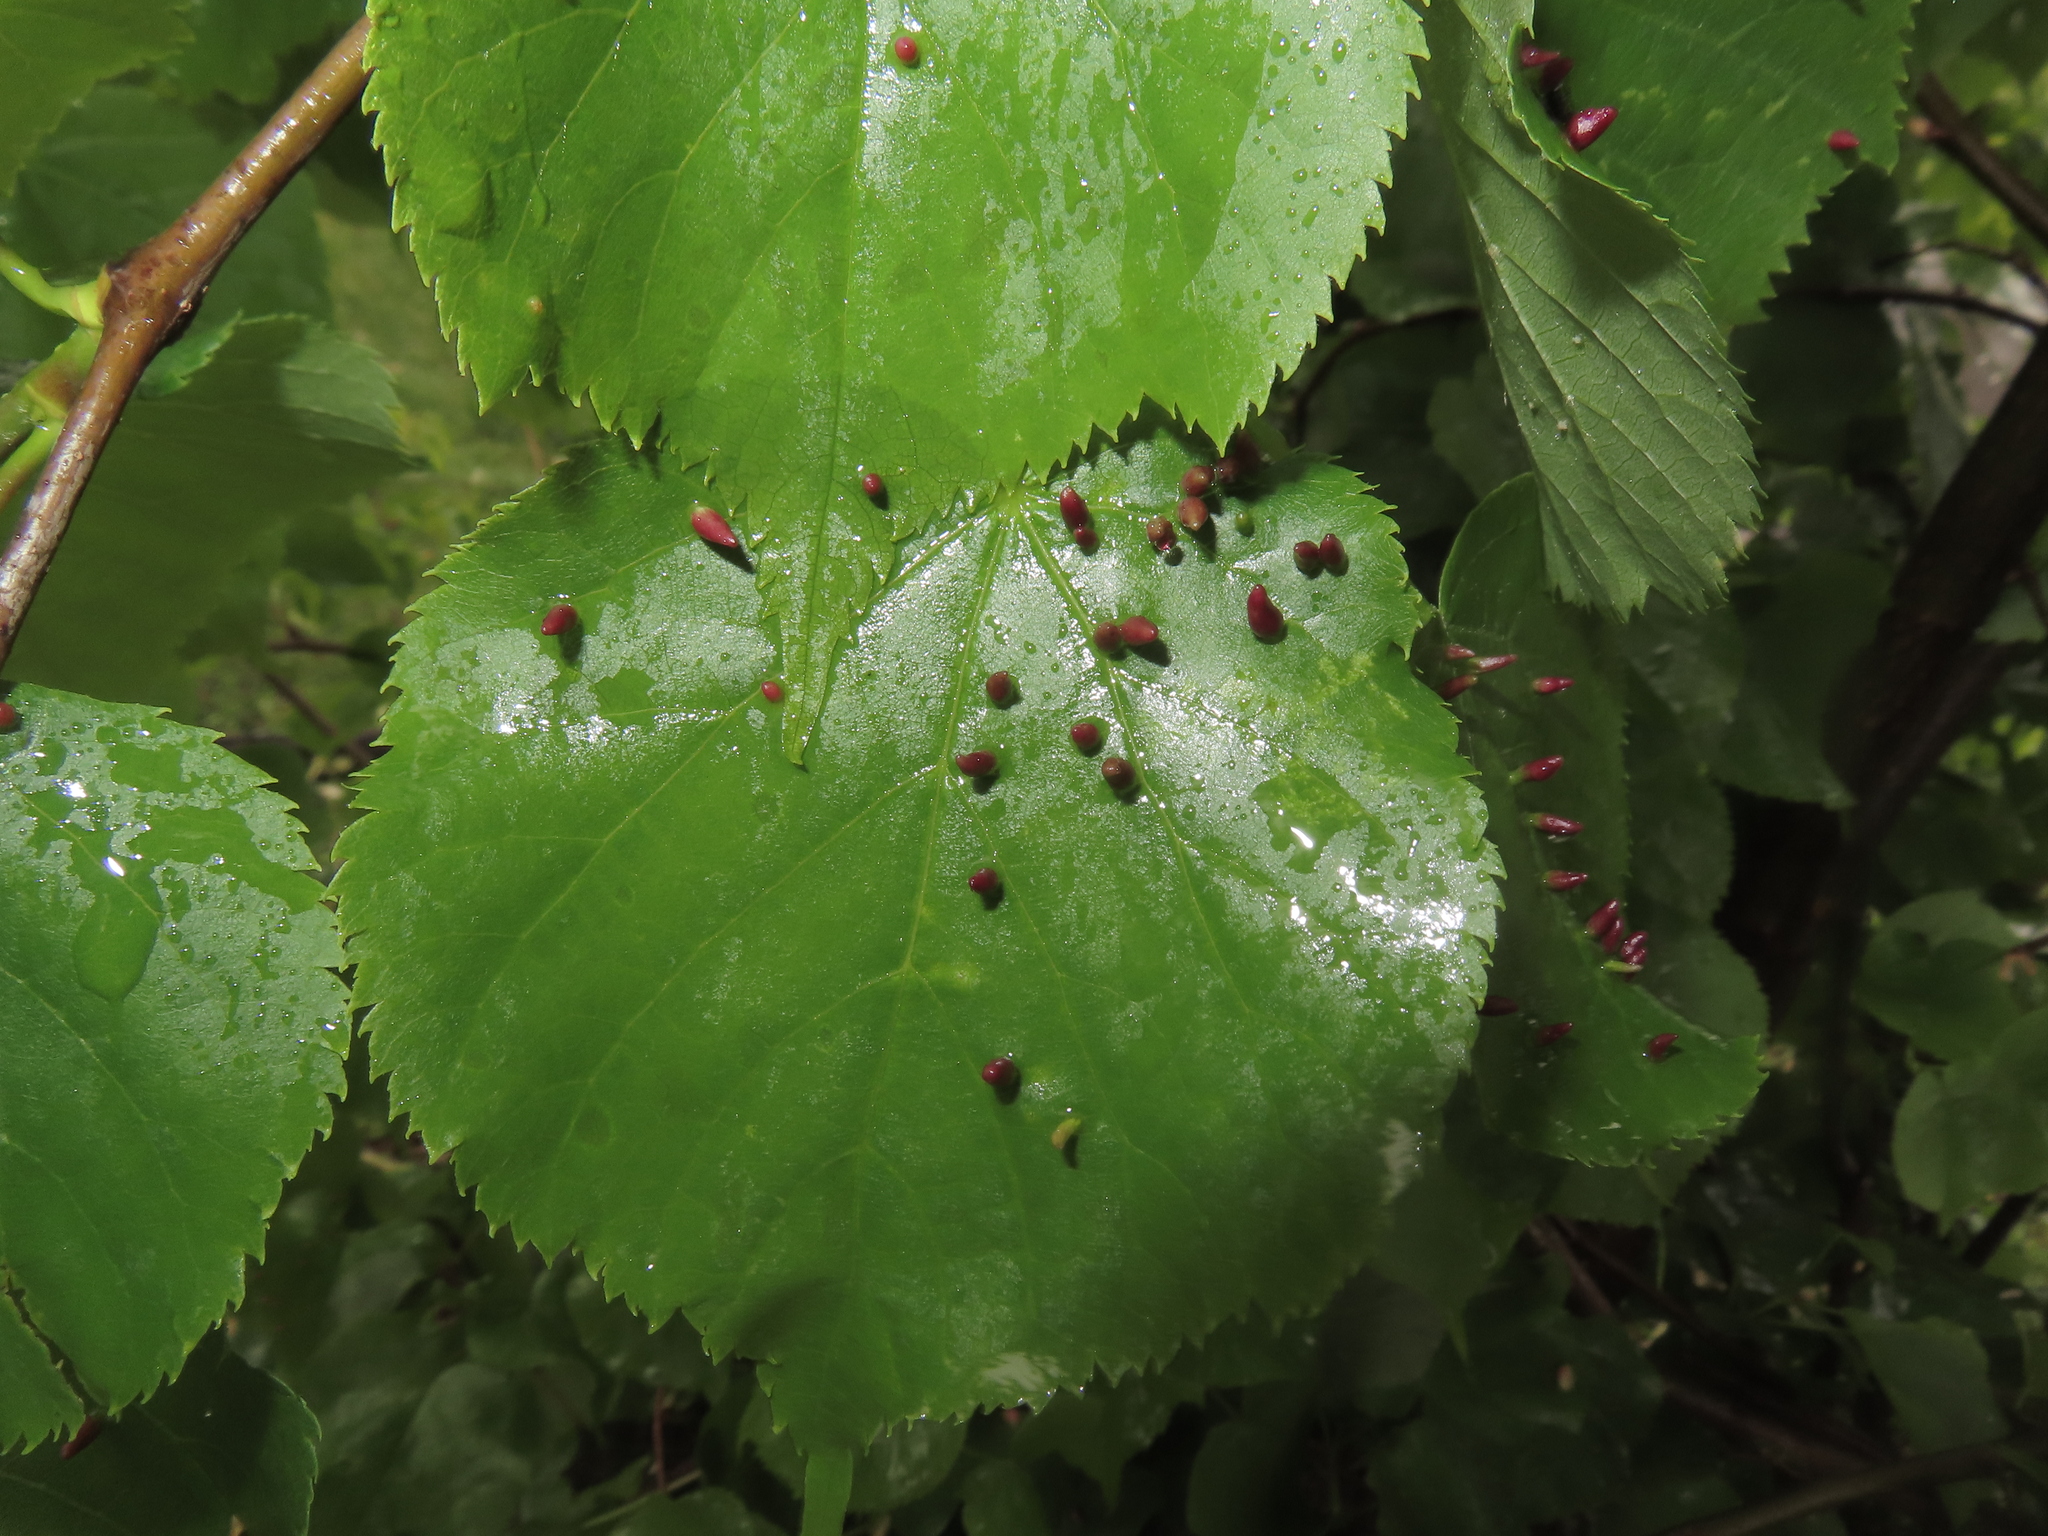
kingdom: Animalia
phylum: Arthropoda
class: Arachnida
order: Trombidiformes
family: Eriophyidae
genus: Eriophyes
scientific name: Eriophyes tiliae
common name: Red nail gall mite
